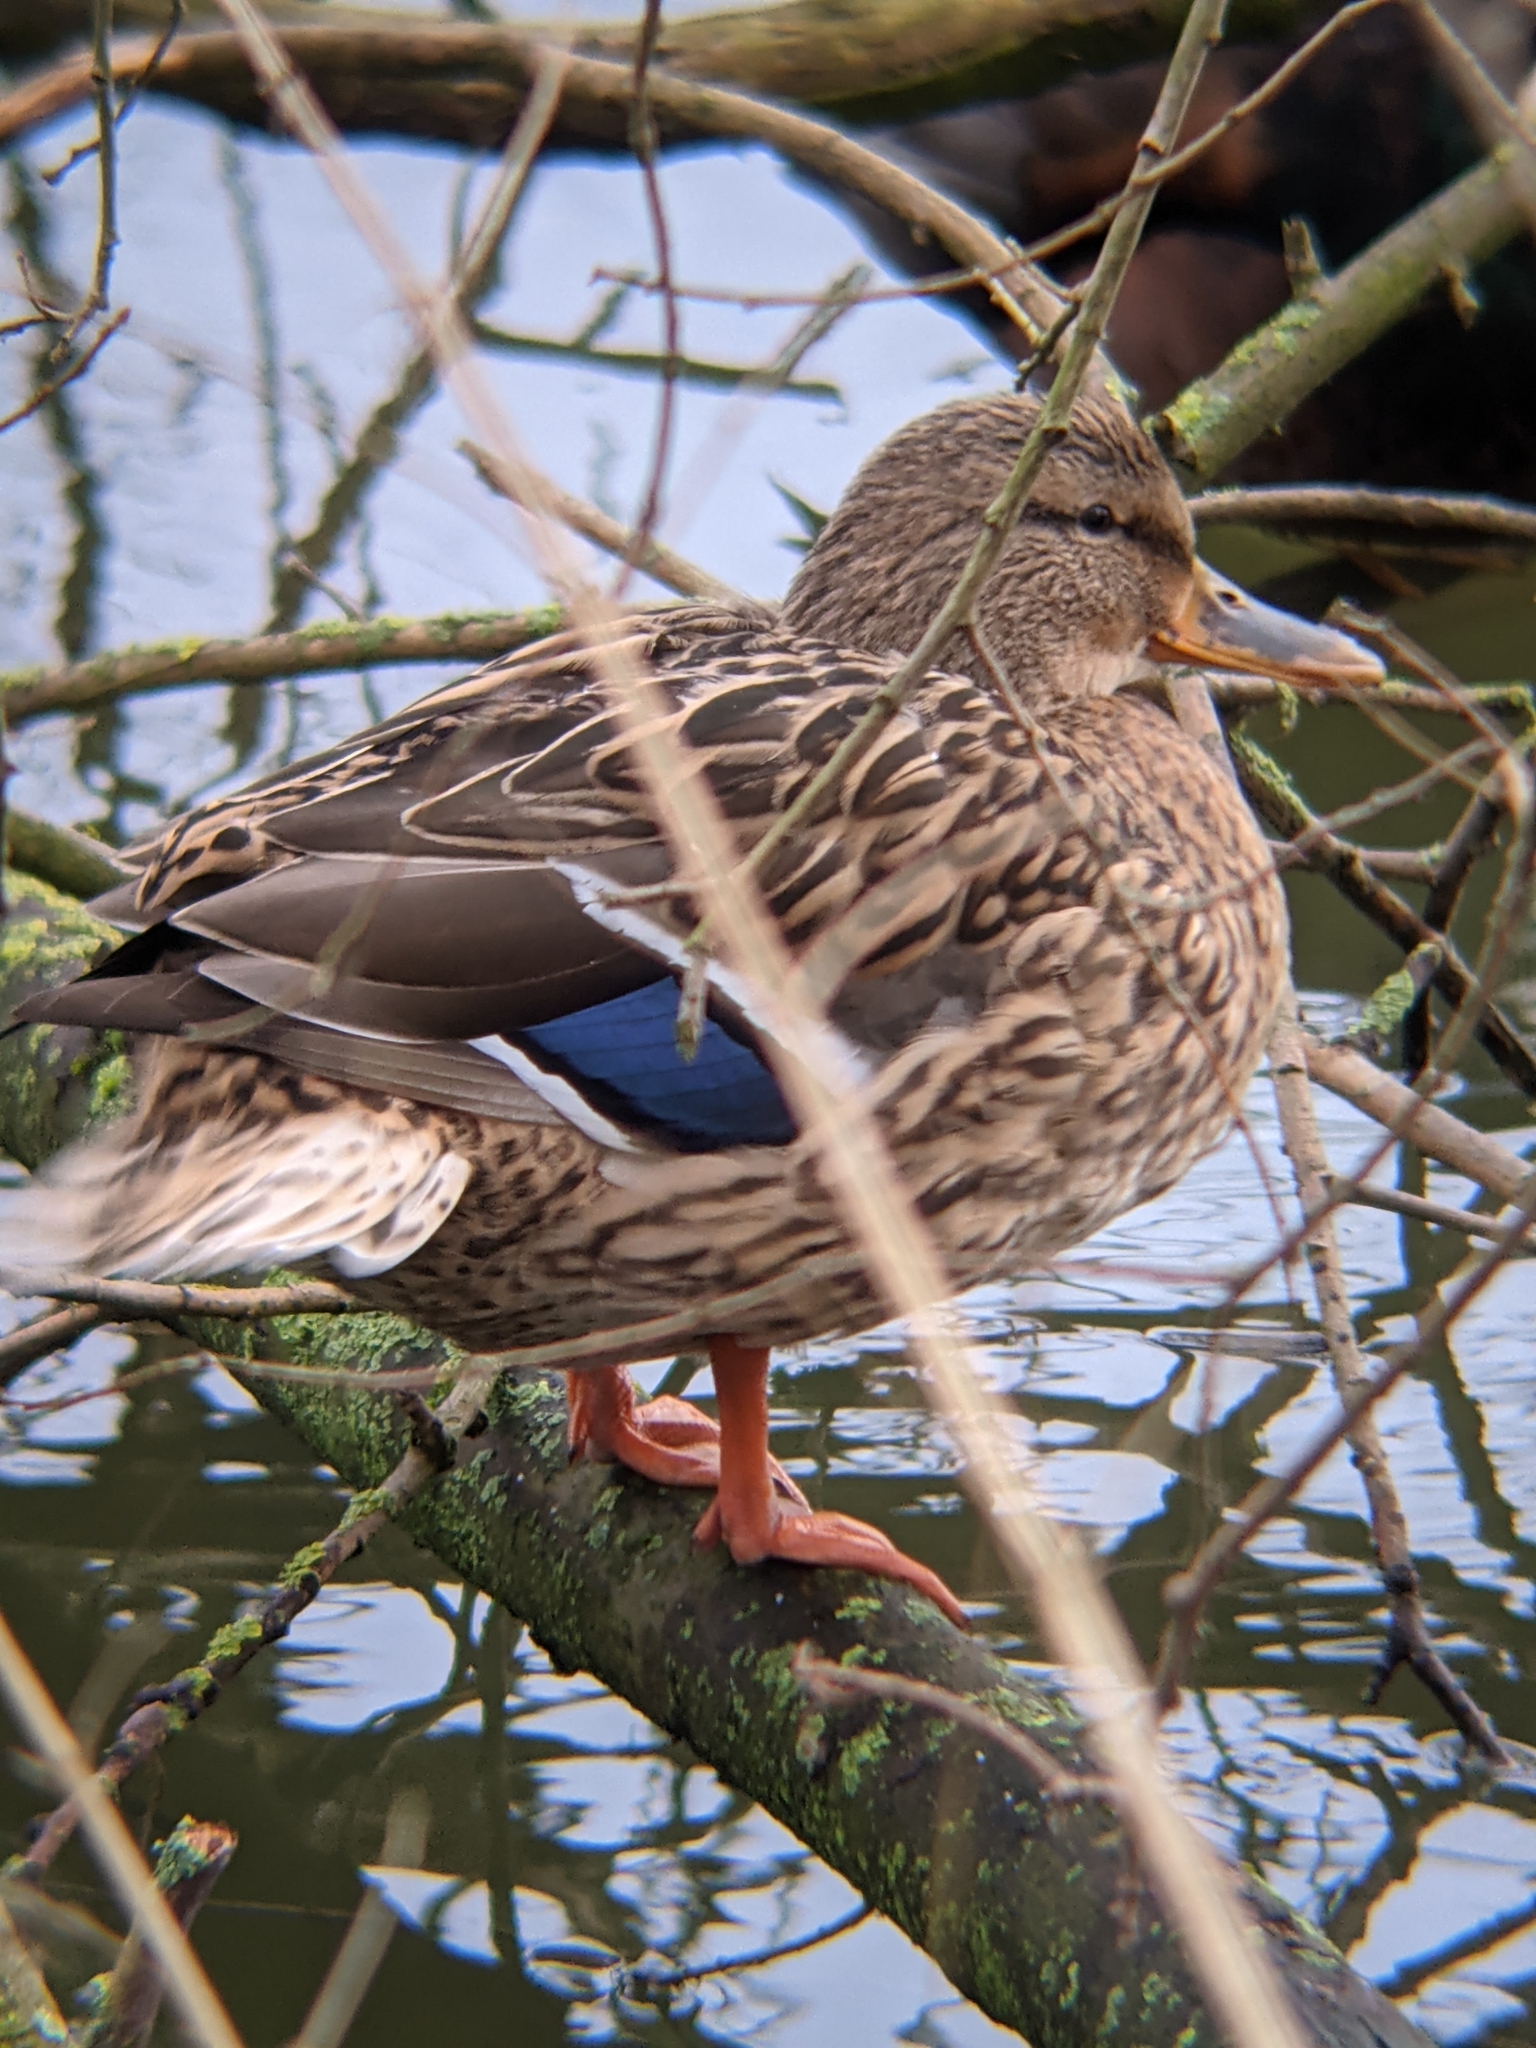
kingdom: Animalia
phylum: Chordata
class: Aves
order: Anseriformes
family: Anatidae
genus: Anas
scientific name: Anas platyrhynchos
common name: Mallard
